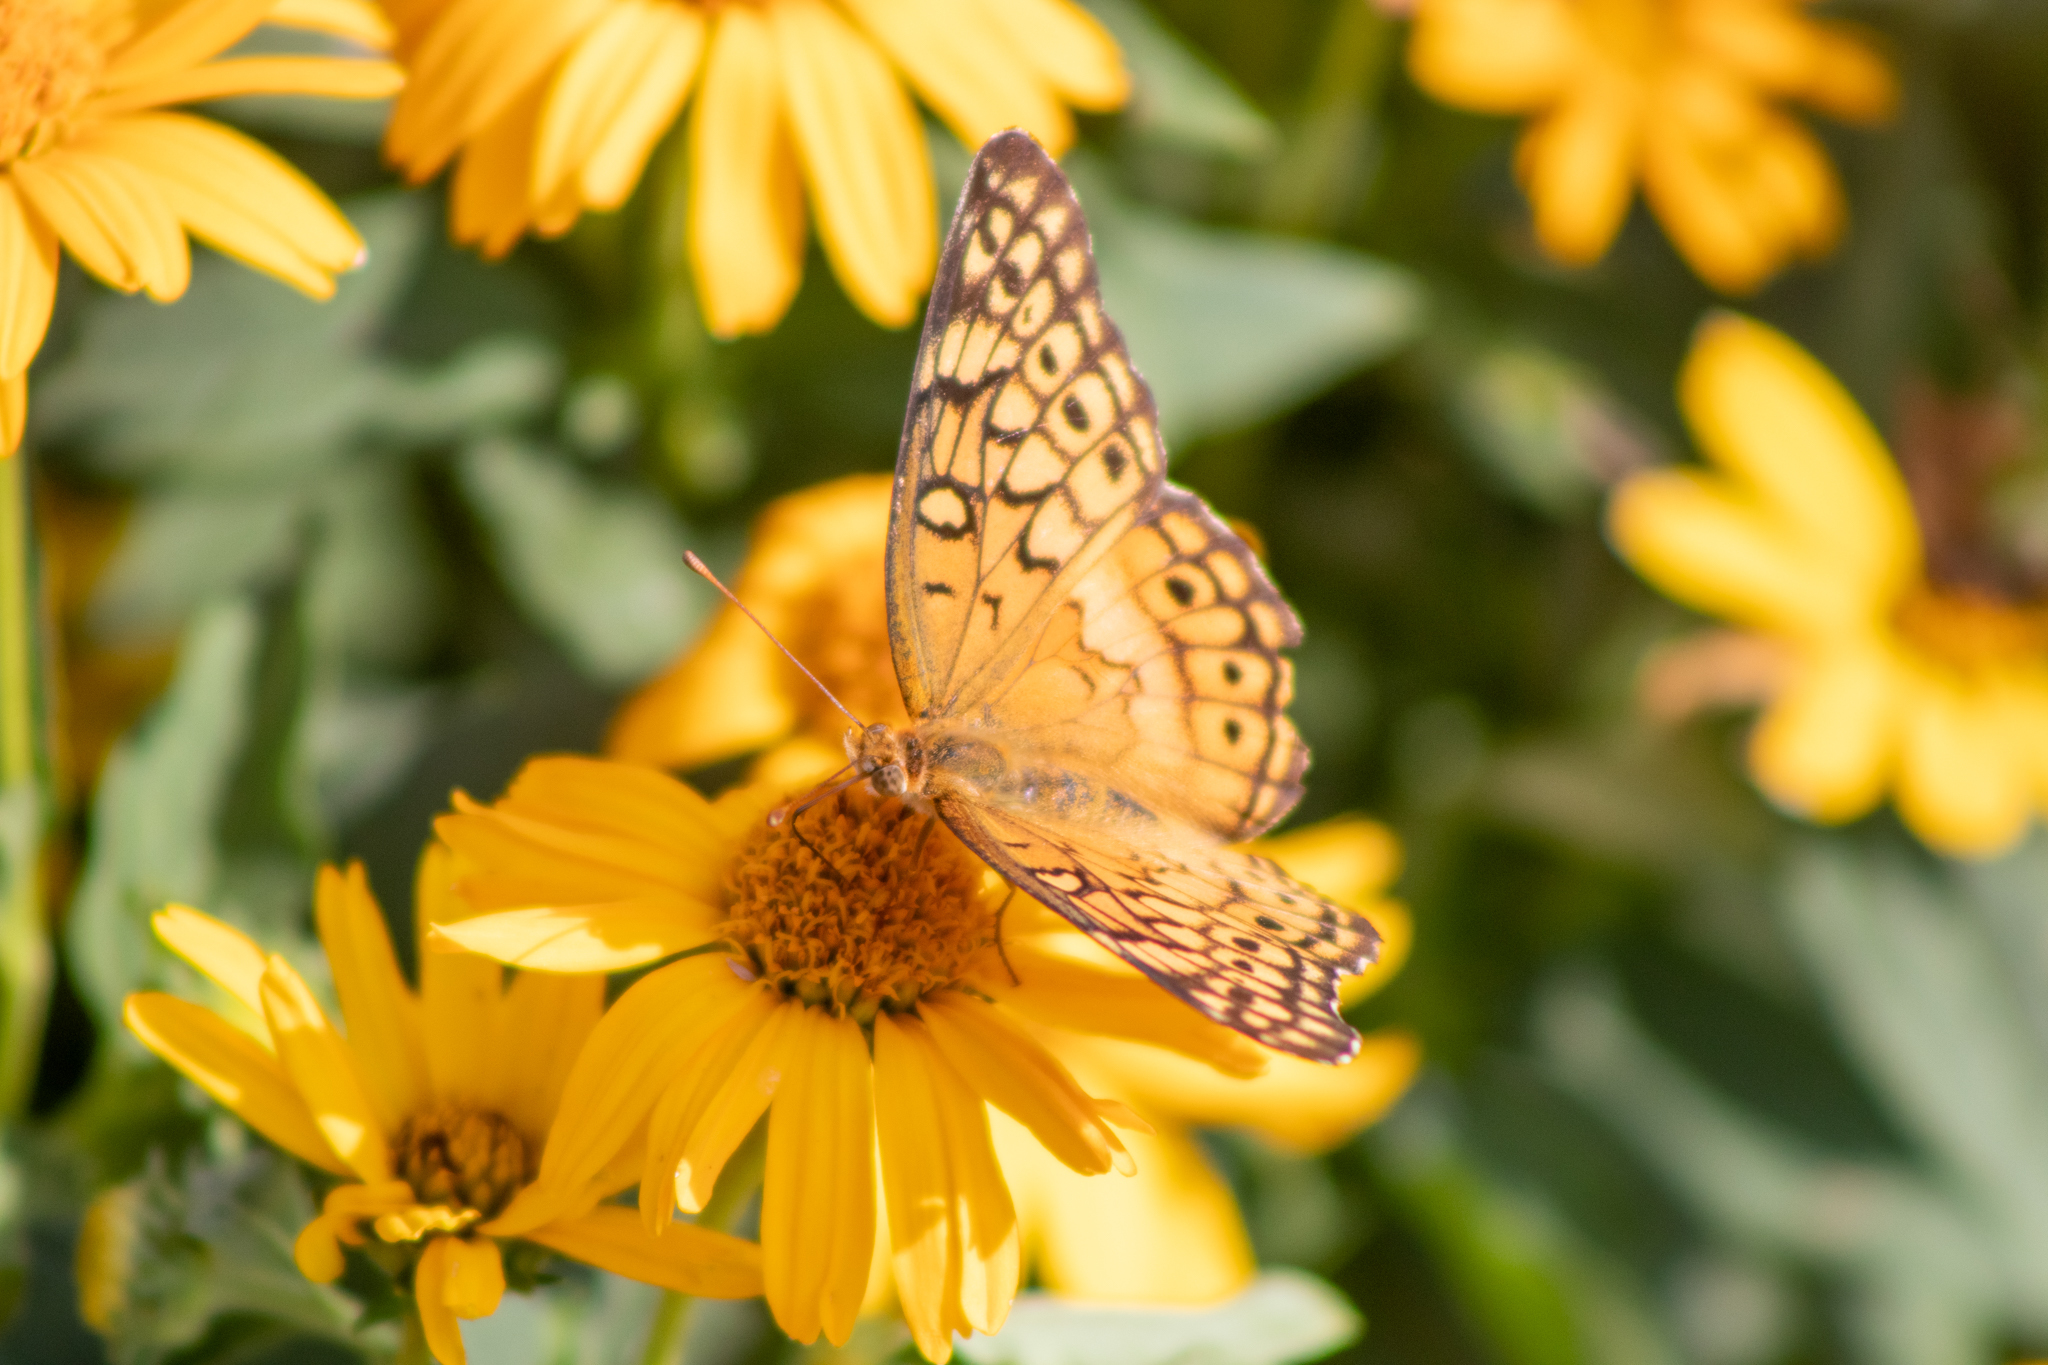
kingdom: Animalia
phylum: Arthropoda
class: Insecta
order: Lepidoptera
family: Nymphalidae
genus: Euptoieta
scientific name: Euptoieta claudia
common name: Variegated fritillary
